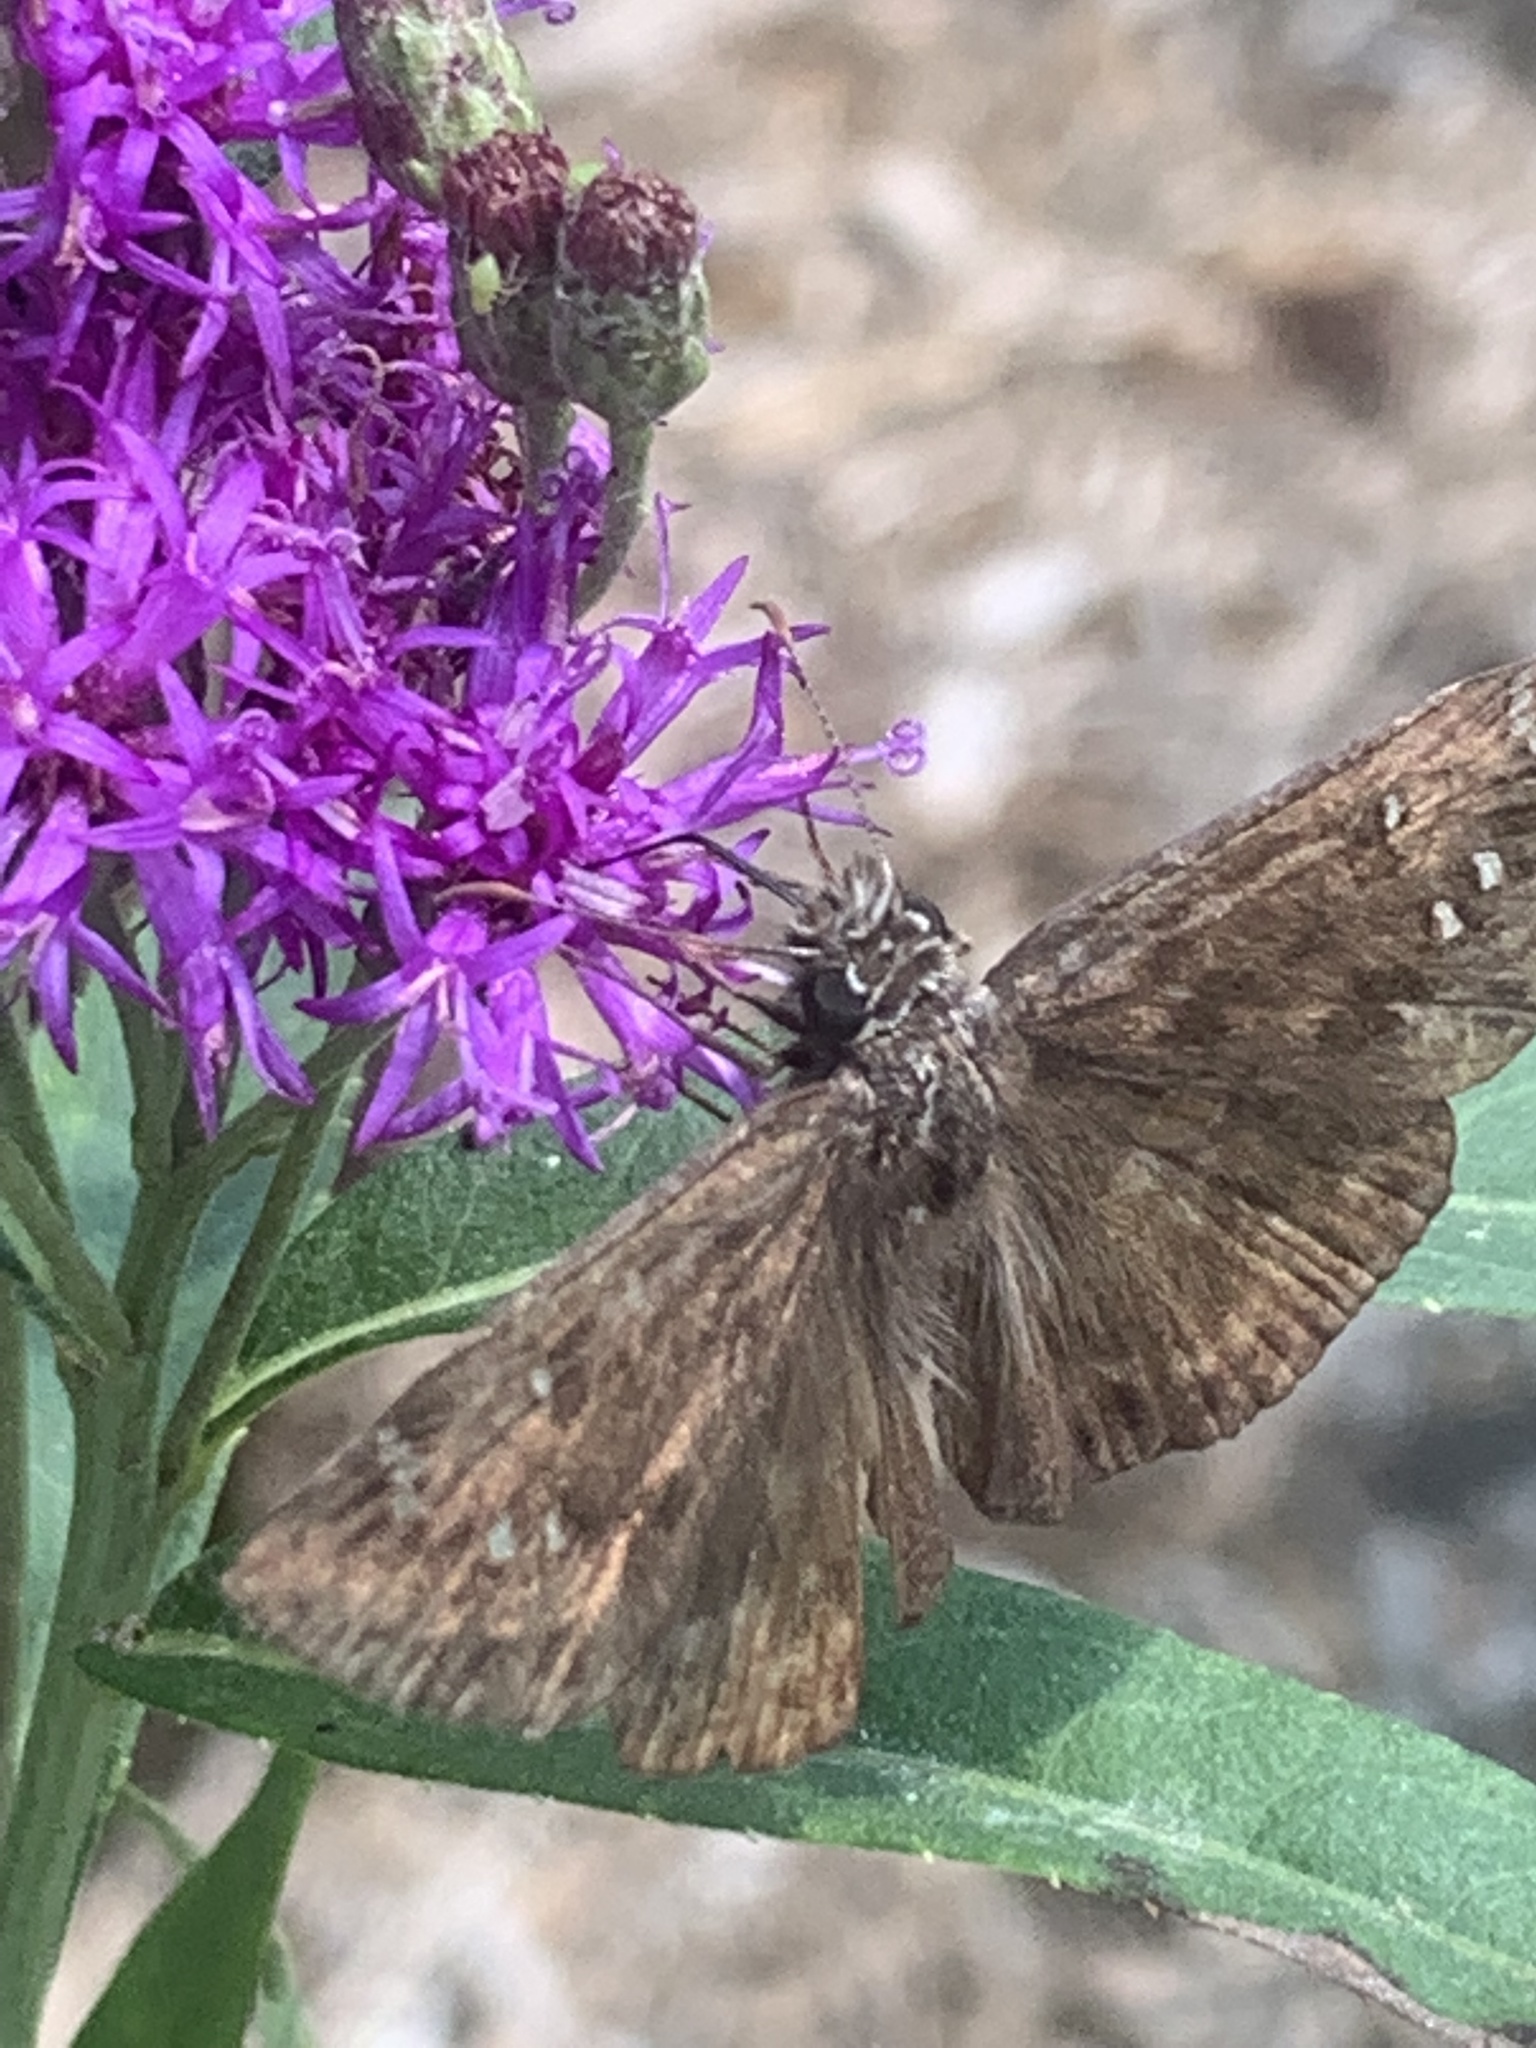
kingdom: Animalia
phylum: Arthropoda
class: Insecta
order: Lepidoptera
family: Hesperiidae
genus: Erynnis
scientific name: Erynnis horatius
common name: Horace's duskywing
